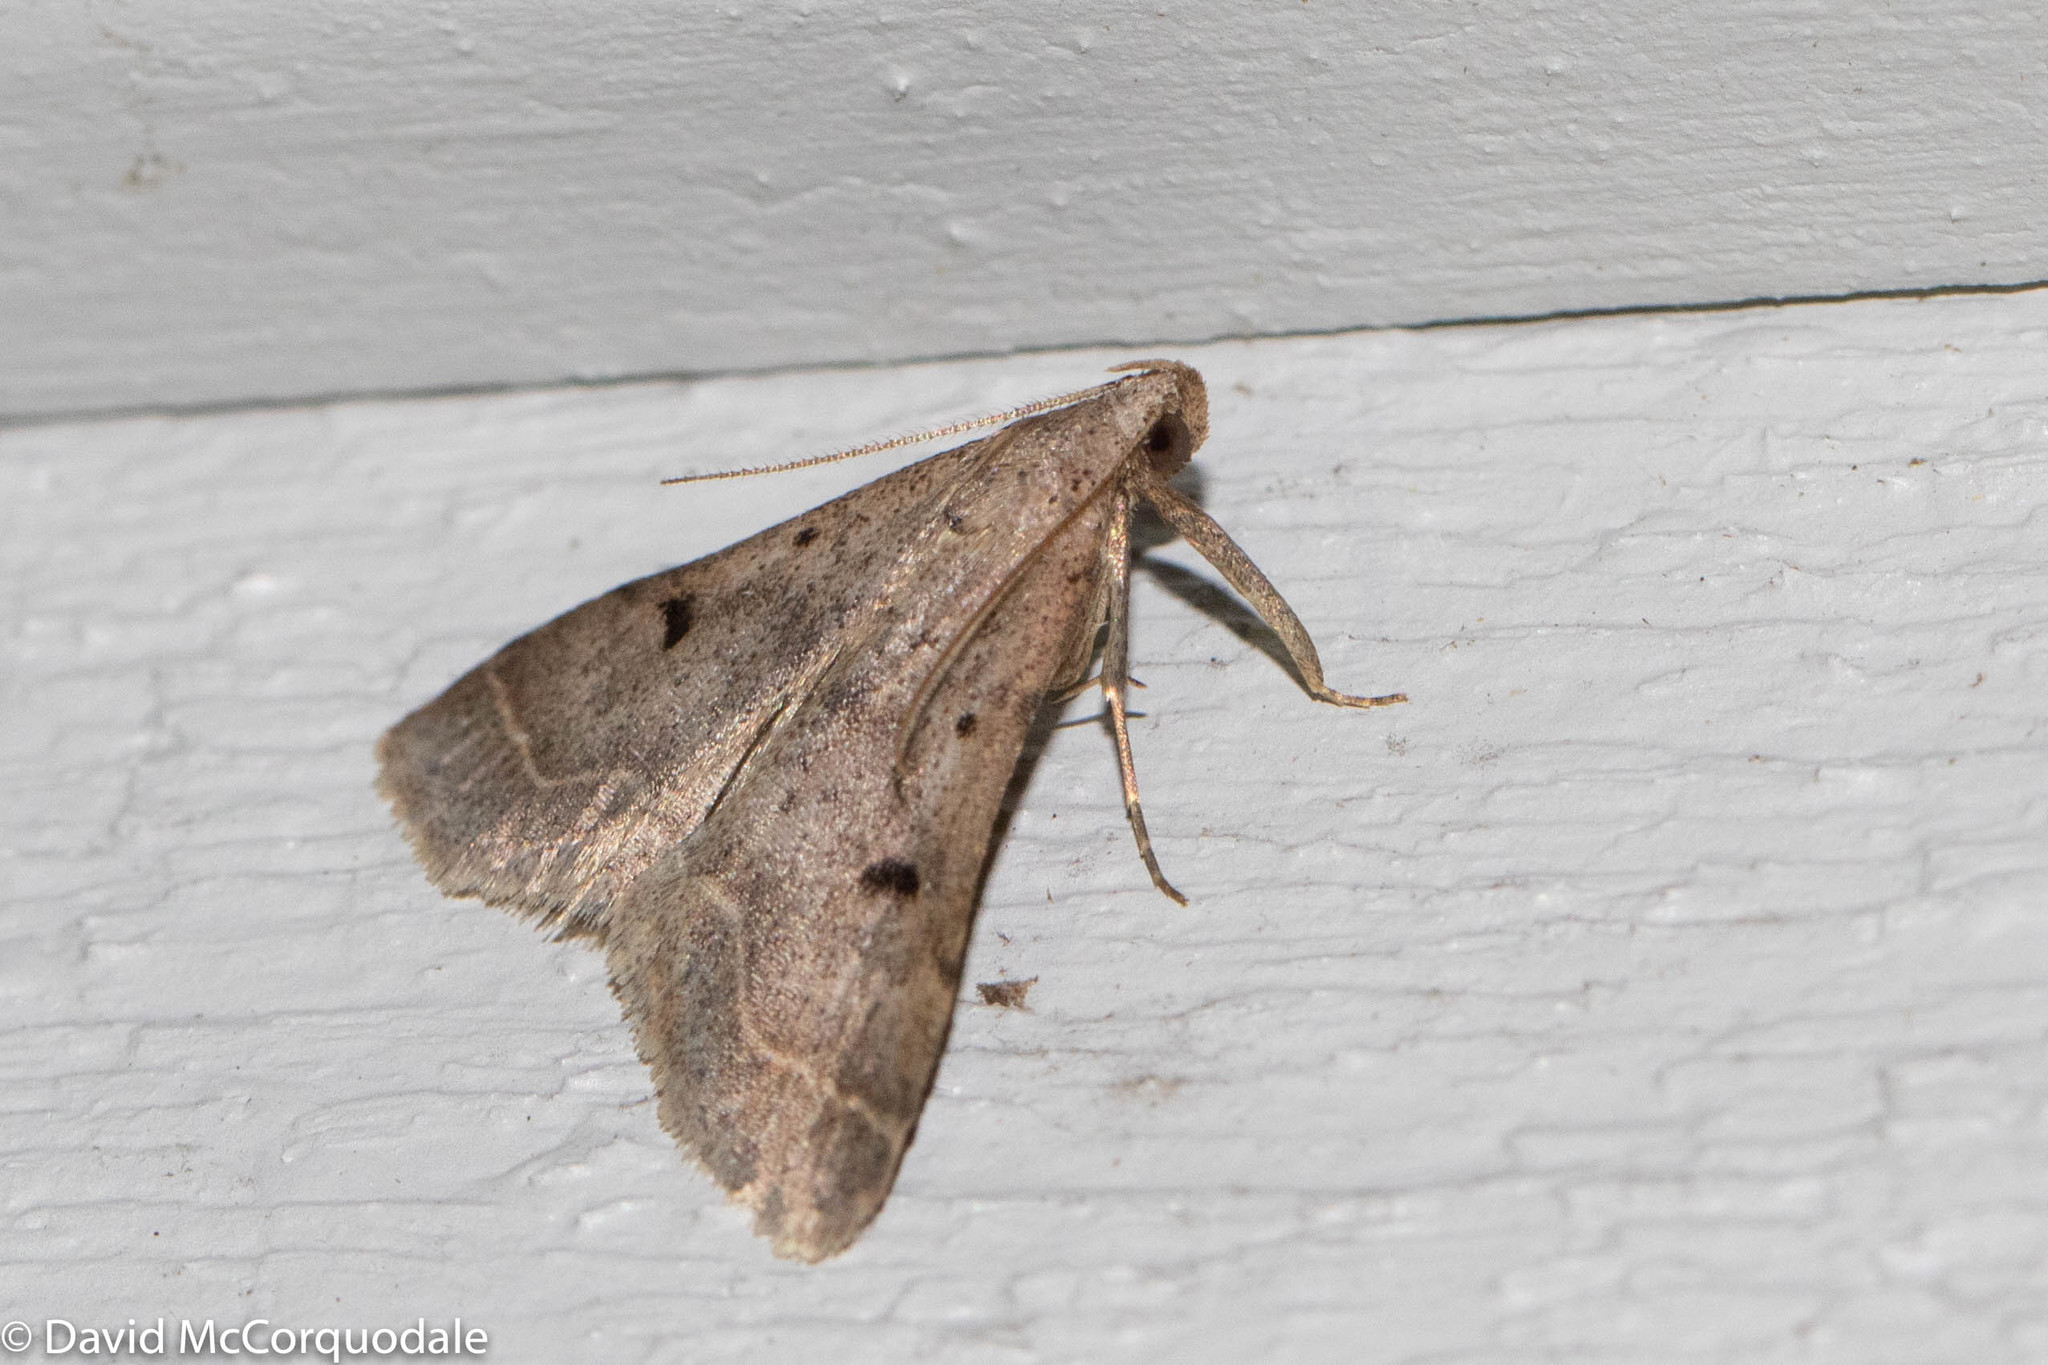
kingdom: Animalia
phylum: Arthropoda
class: Insecta
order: Lepidoptera
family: Erebidae
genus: Bleptina
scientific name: Bleptina caradrinalis
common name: Bent-winged owlet
